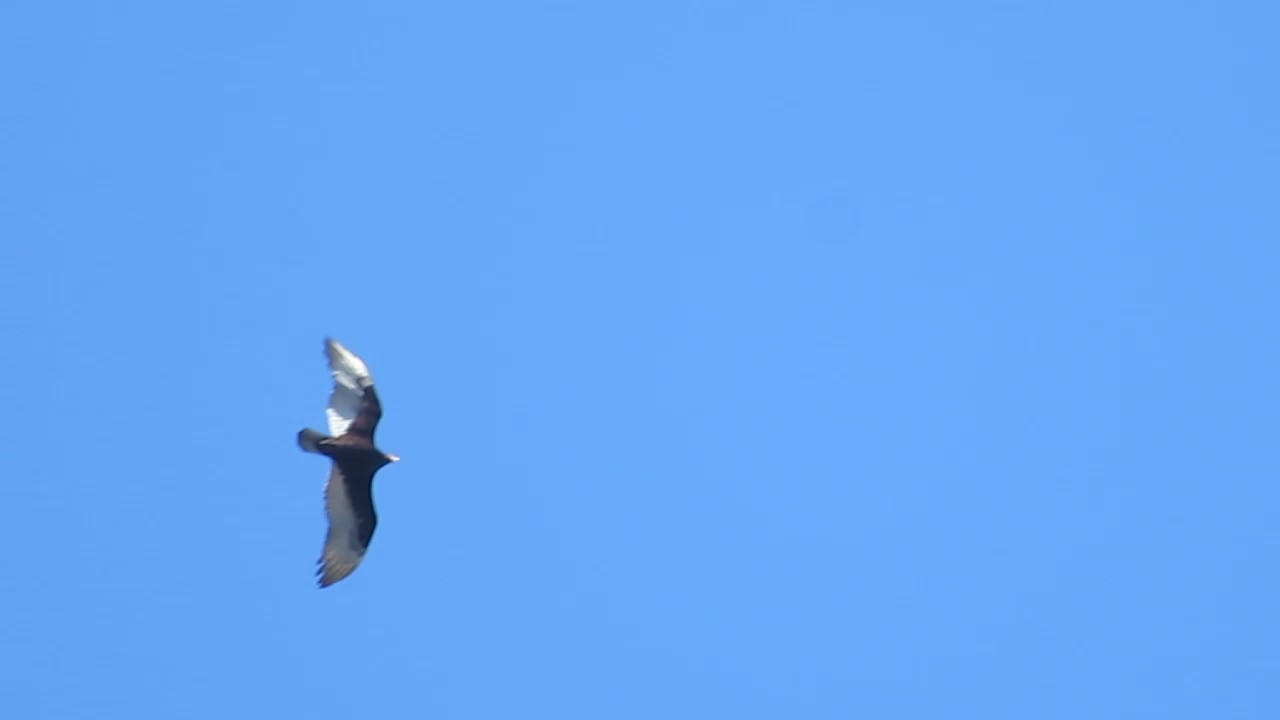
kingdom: Animalia
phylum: Chordata
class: Aves
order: Accipitriformes
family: Cathartidae
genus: Cathartes
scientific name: Cathartes aura
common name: Turkey vulture
